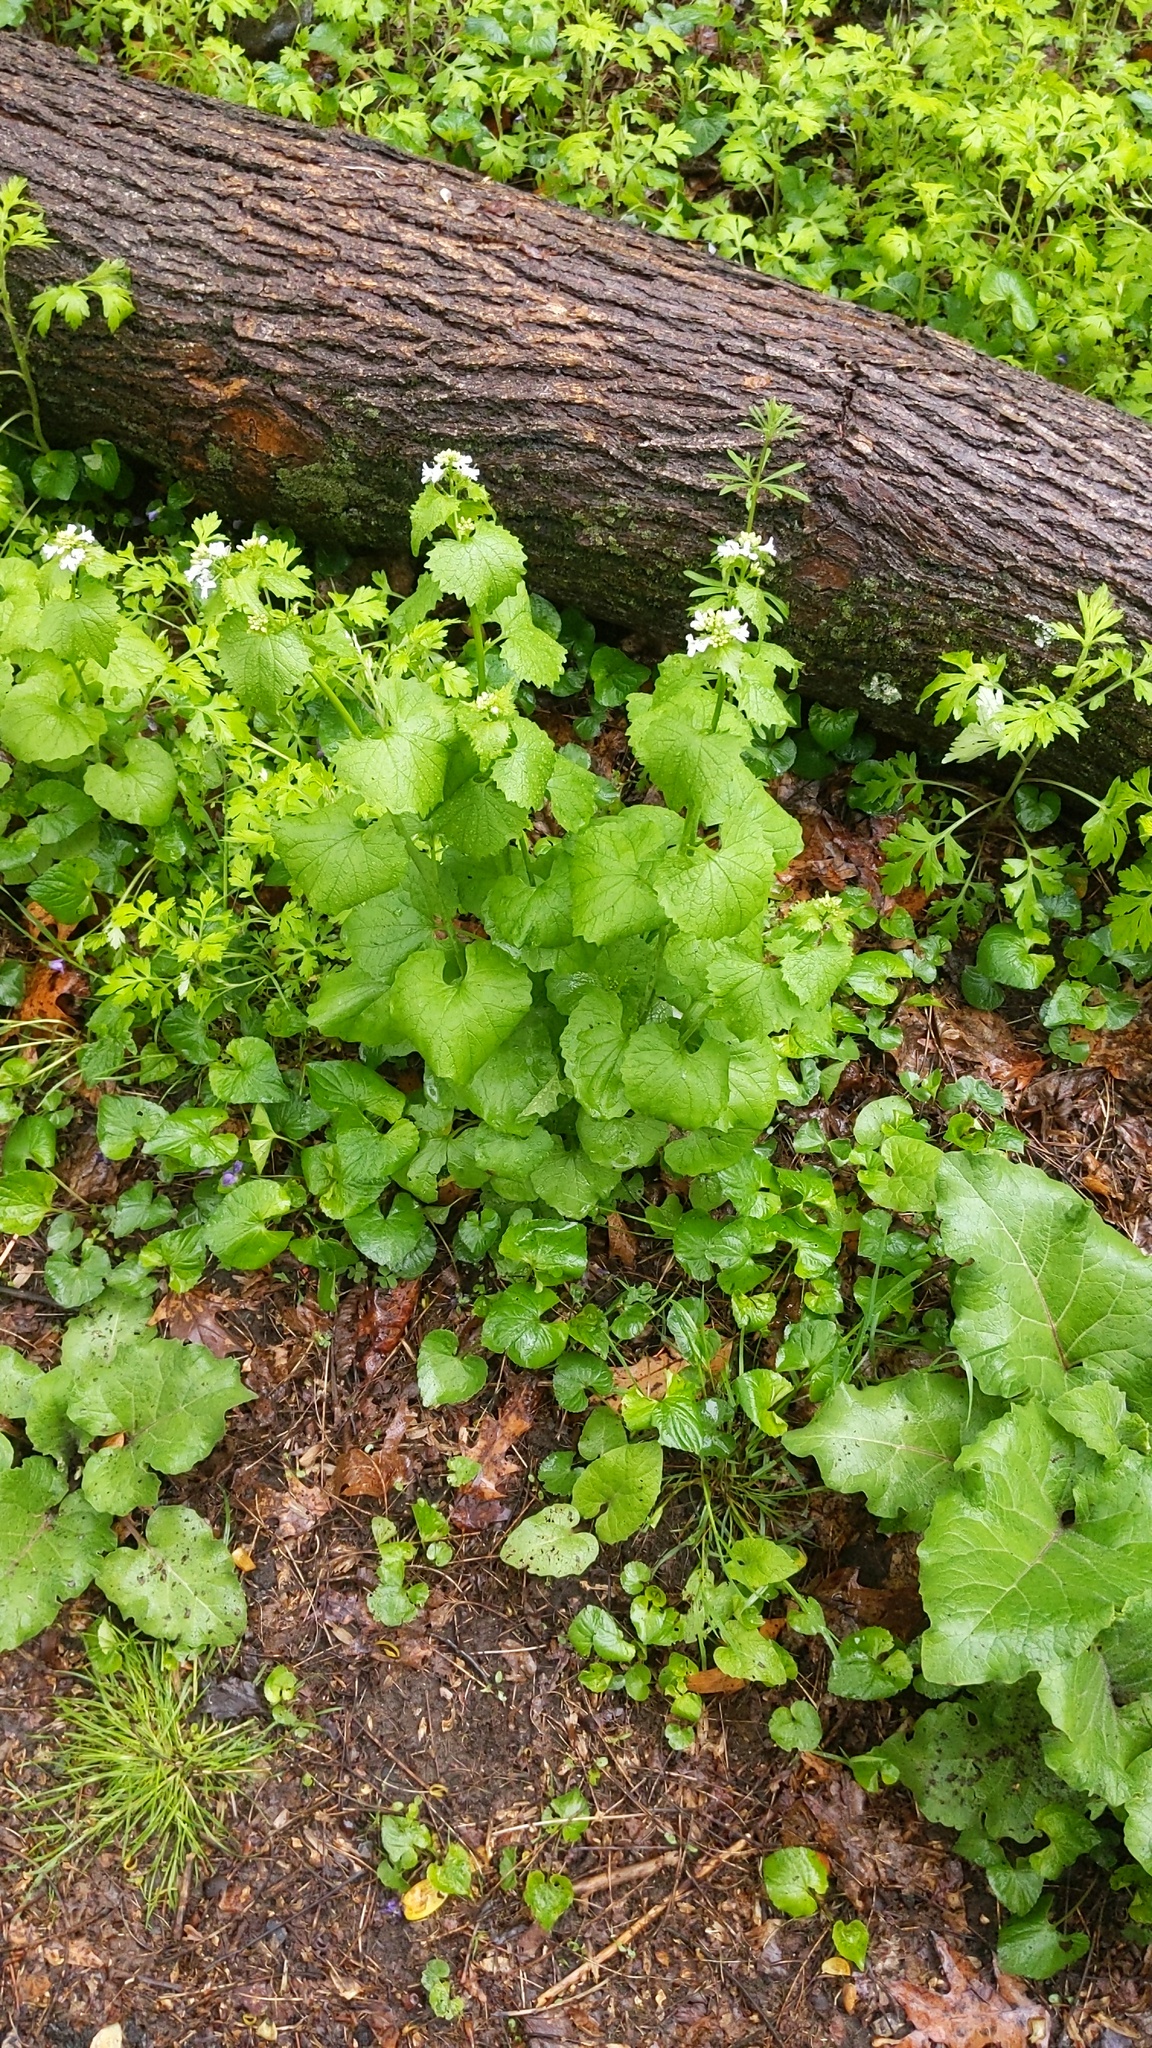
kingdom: Plantae
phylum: Tracheophyta
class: Magnoliopsida
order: Brassicales
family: Brassicaceae
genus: Alliaria
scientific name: Alliaria petiolata
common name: Garlic mustard
